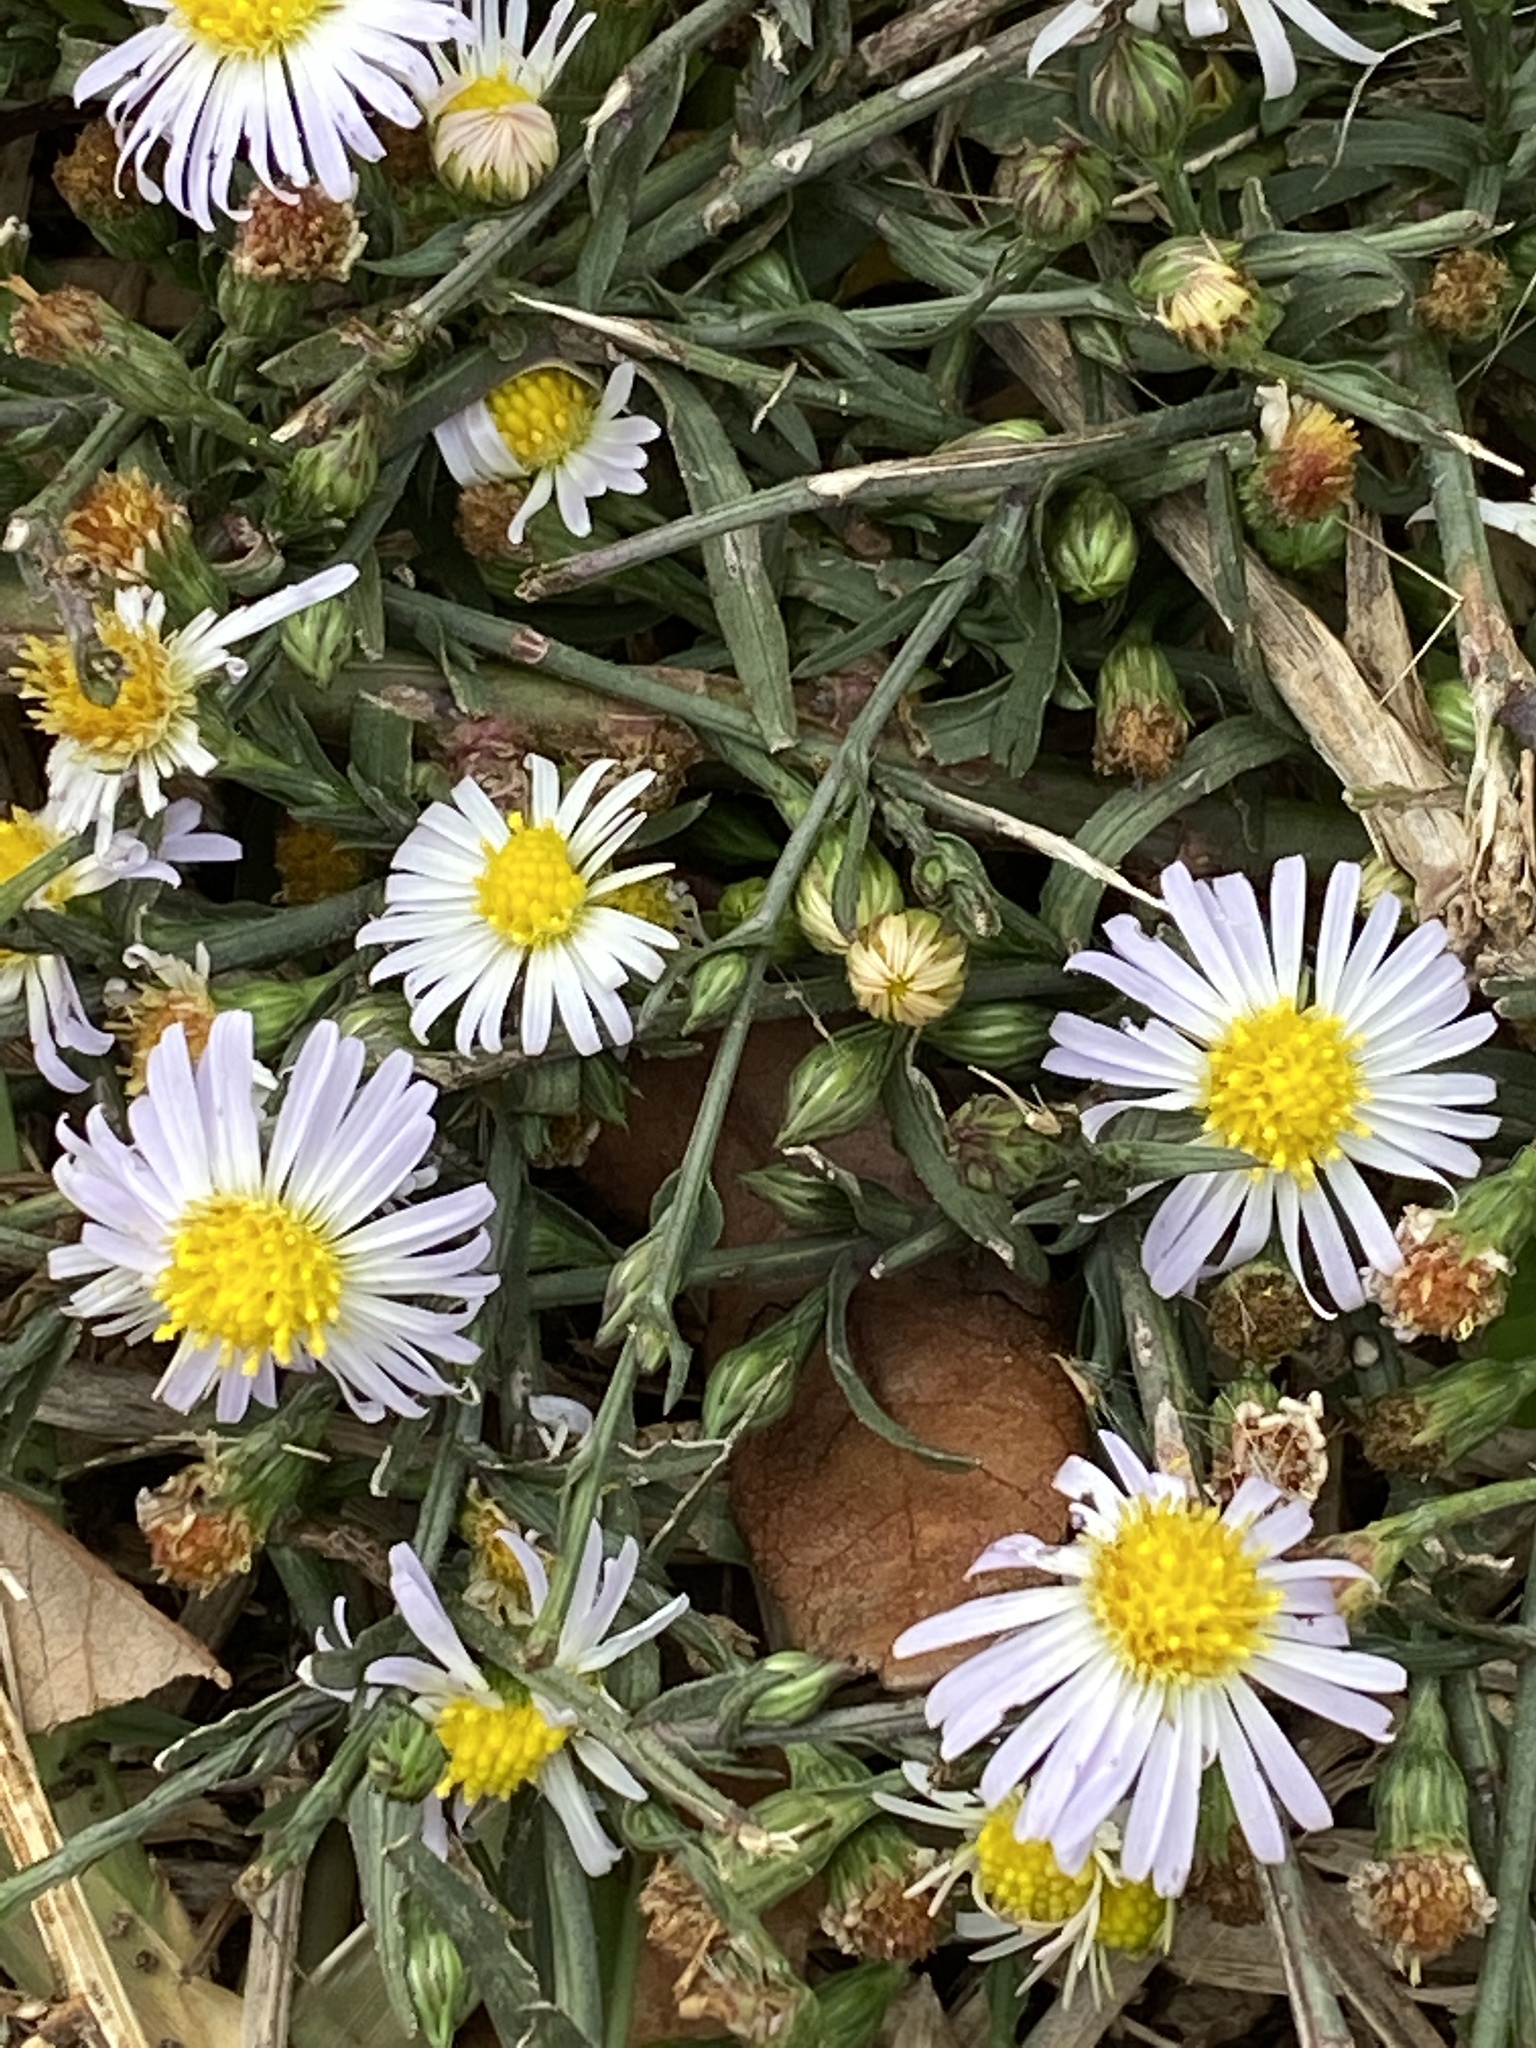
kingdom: Plantae
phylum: Tracheophyta
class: Magnoliopsida
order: Asterales
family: Asteraceae
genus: Symphyotrichum
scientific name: Symphyotrichum divaricatum
